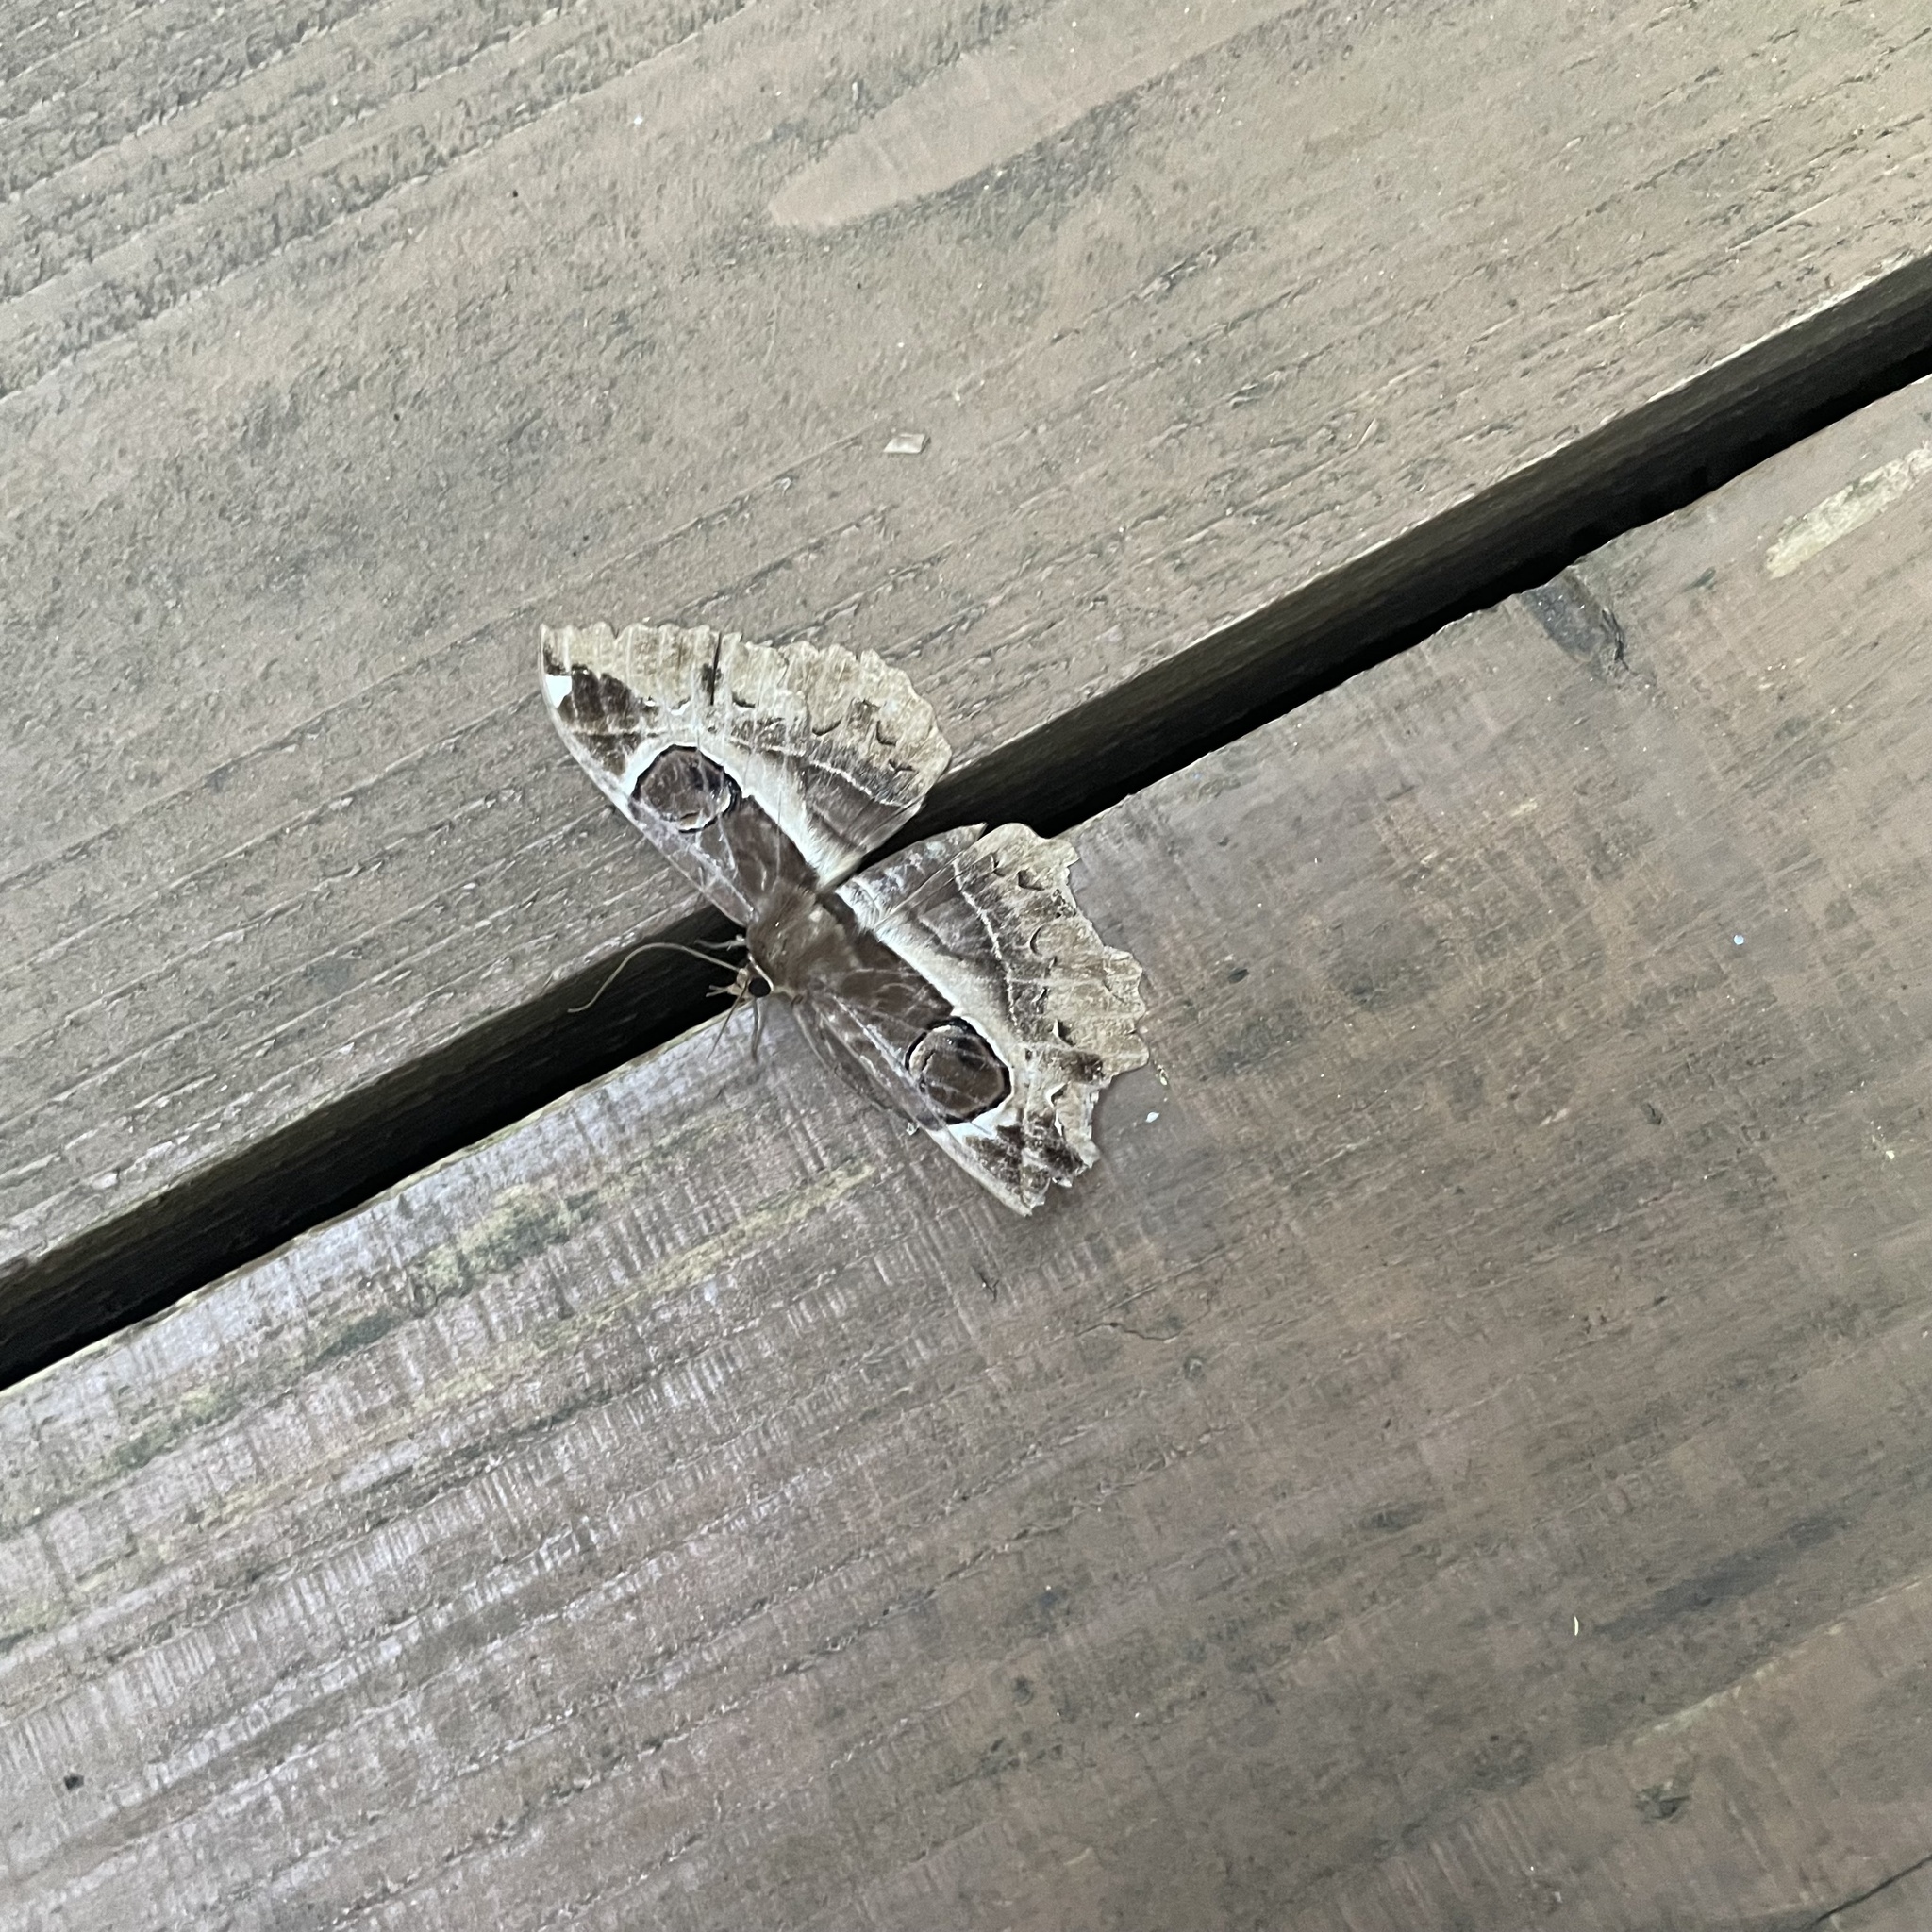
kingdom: Animalia
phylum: Arthropoda
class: Insecta
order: Lepidoptera
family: Erebidae
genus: Erebus
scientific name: Erebus ephesperis
